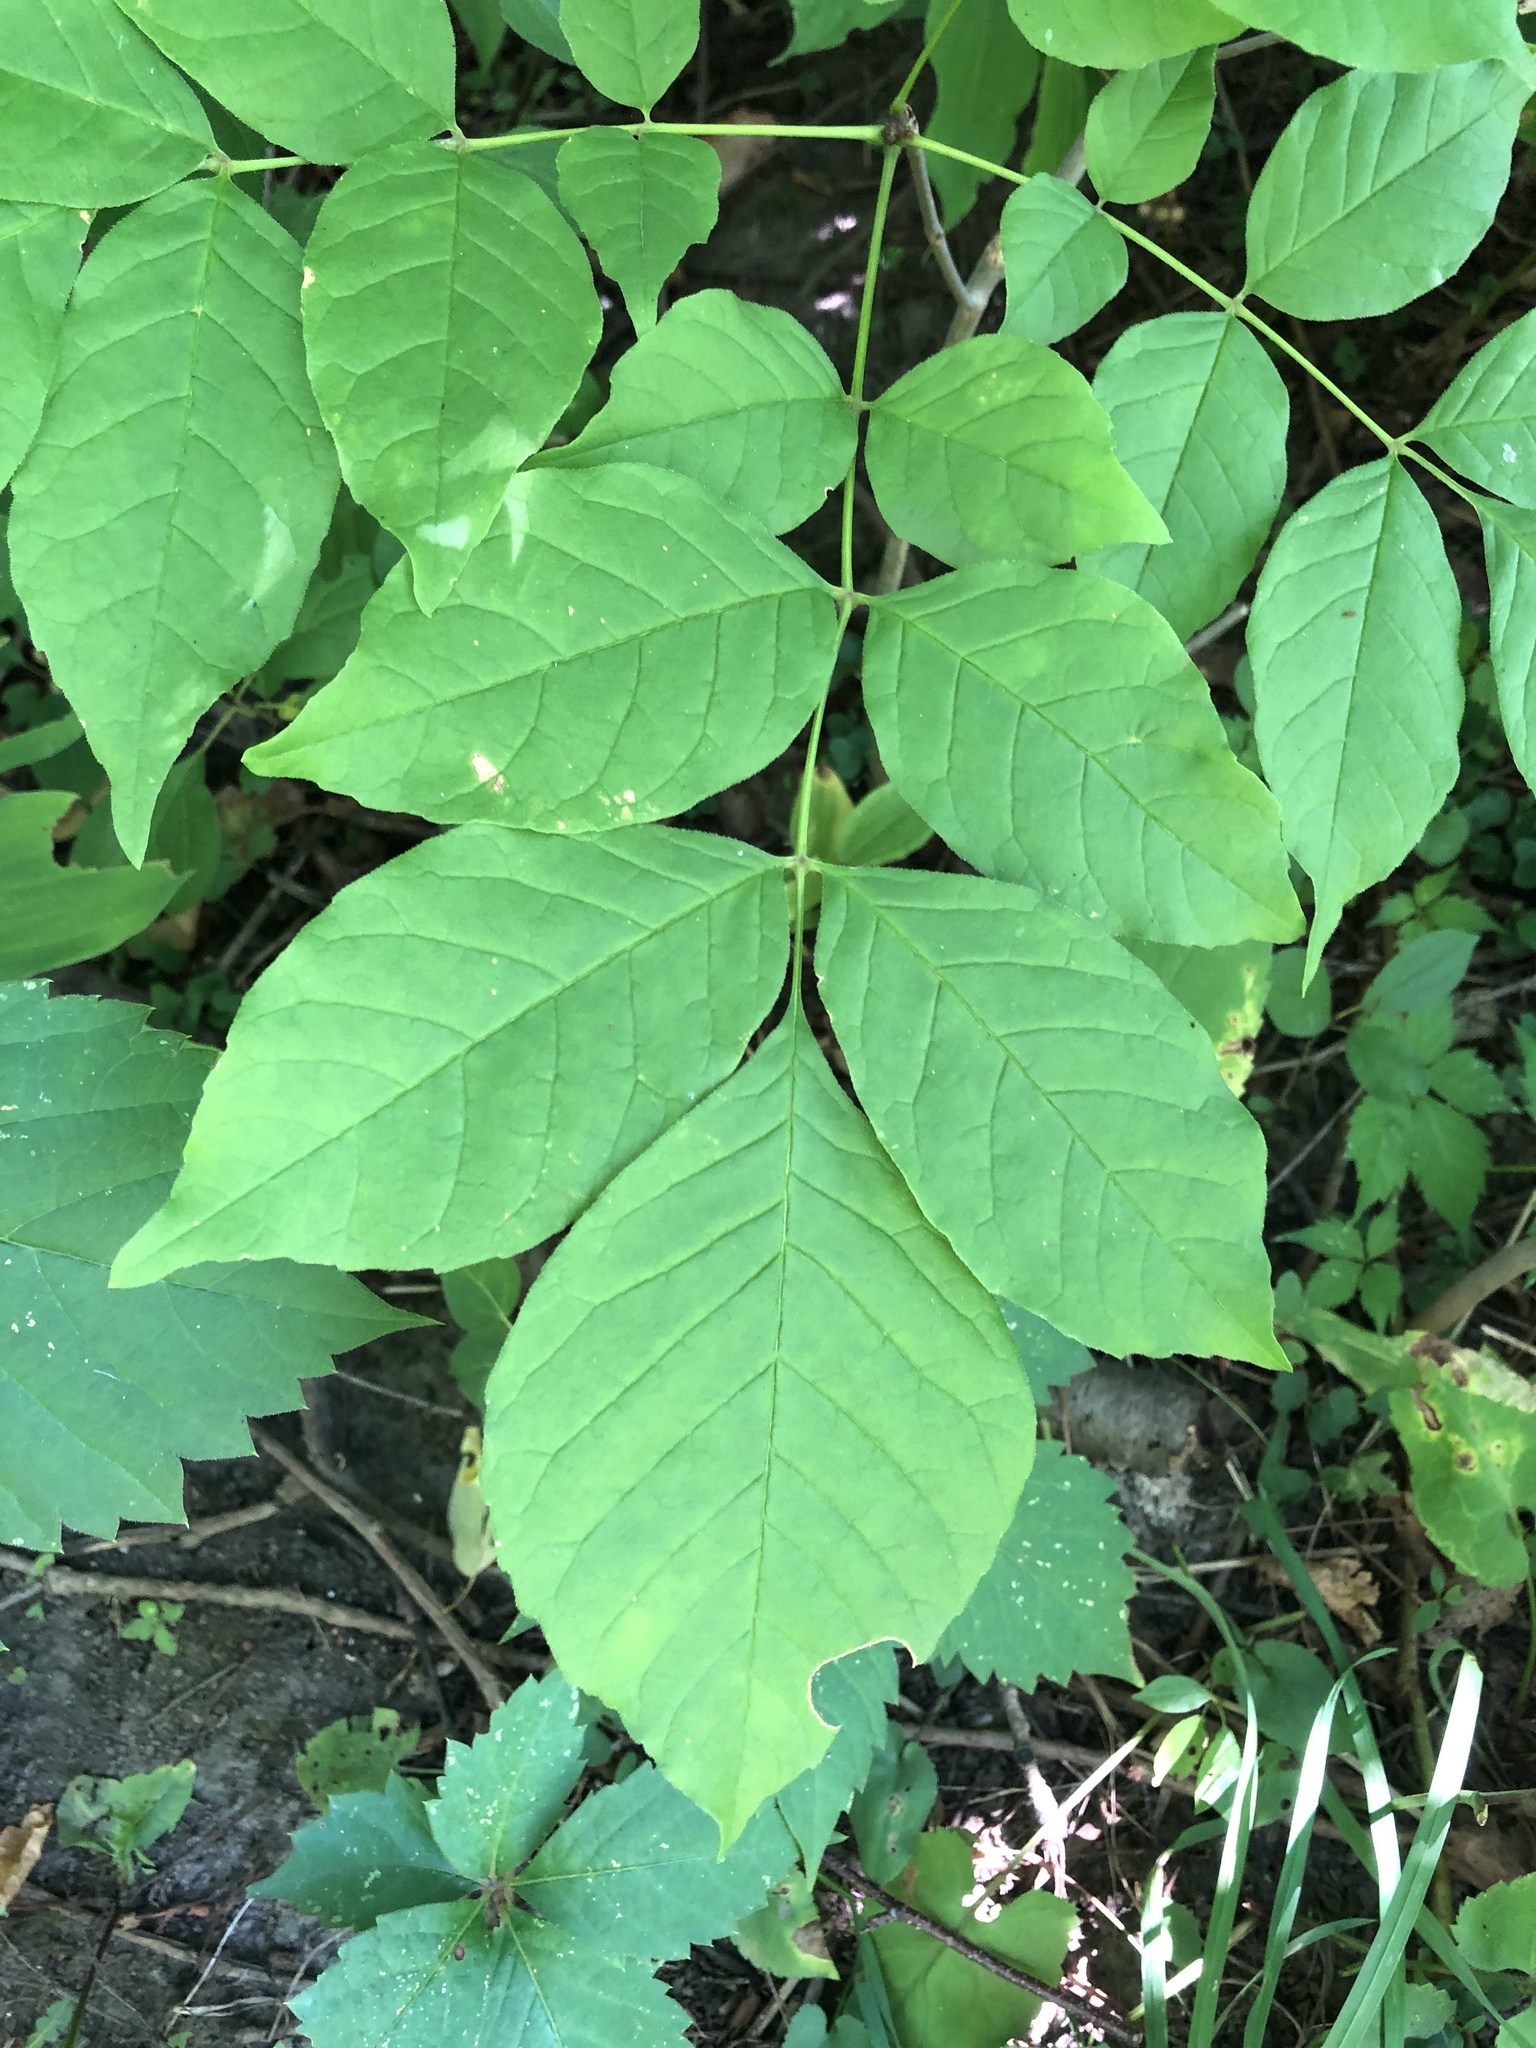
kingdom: Plantae
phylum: Tracheophyta
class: Magnoliopsida
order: Lamiales
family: Oleaceae
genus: Fraxinus
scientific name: Fraxinus americana
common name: White ash
